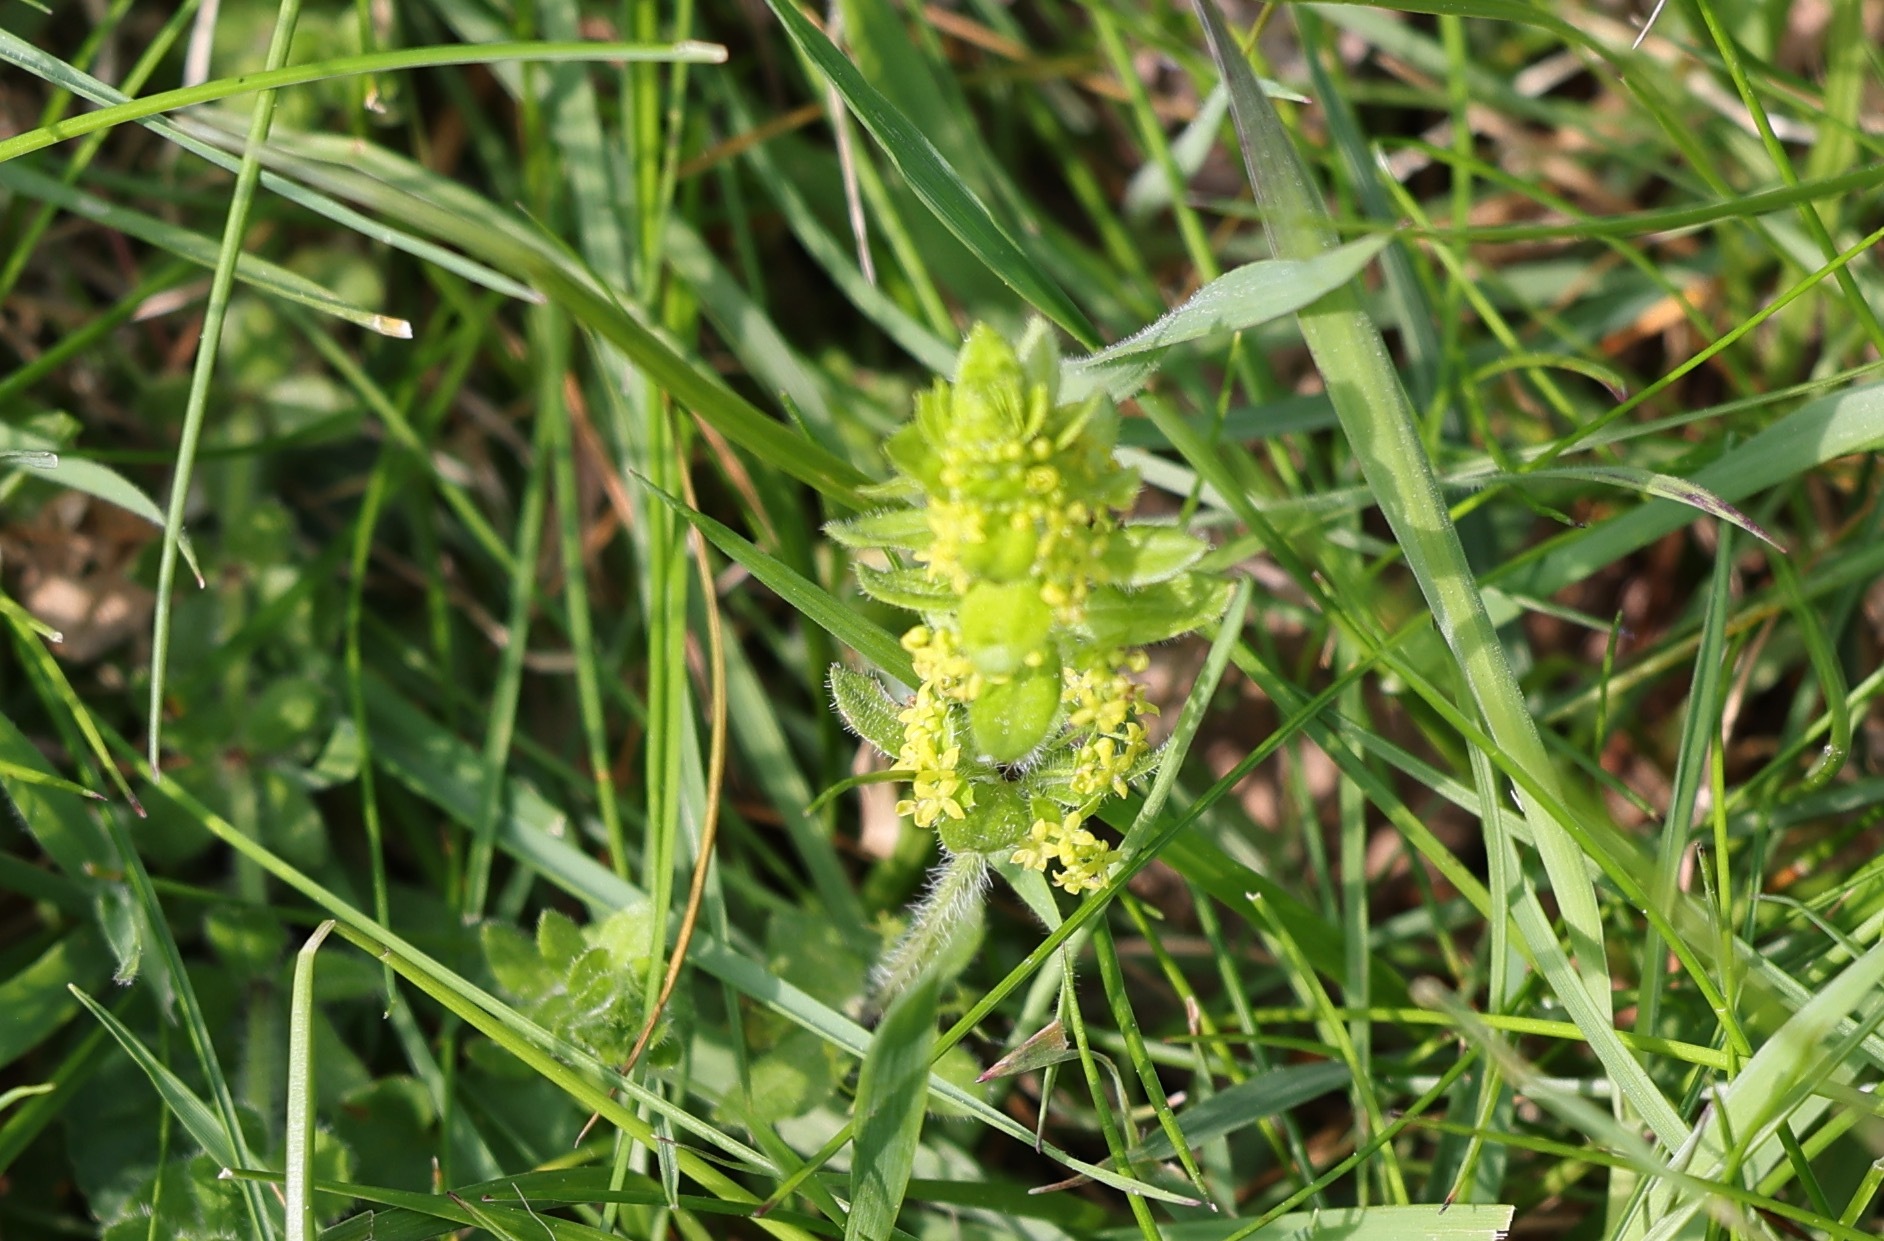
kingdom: Plantae
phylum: Tracheophyta
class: Magnoliopsida
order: Gentianales
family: Rubiaceae
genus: Cruciata
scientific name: Cruciata laevipes
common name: Crosswort
